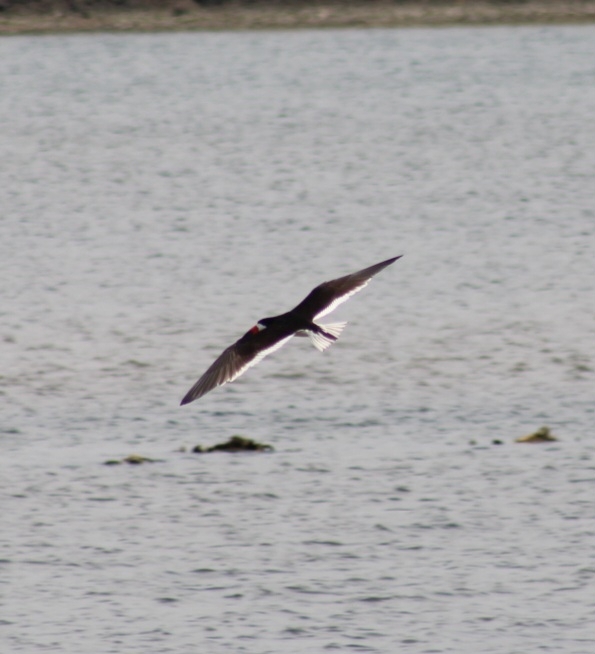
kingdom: Animalia
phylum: Chordata
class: Aves
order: Charadriiformes
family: Laridae
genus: Rynchops
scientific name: Rynchops niger
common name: Black skimmer
